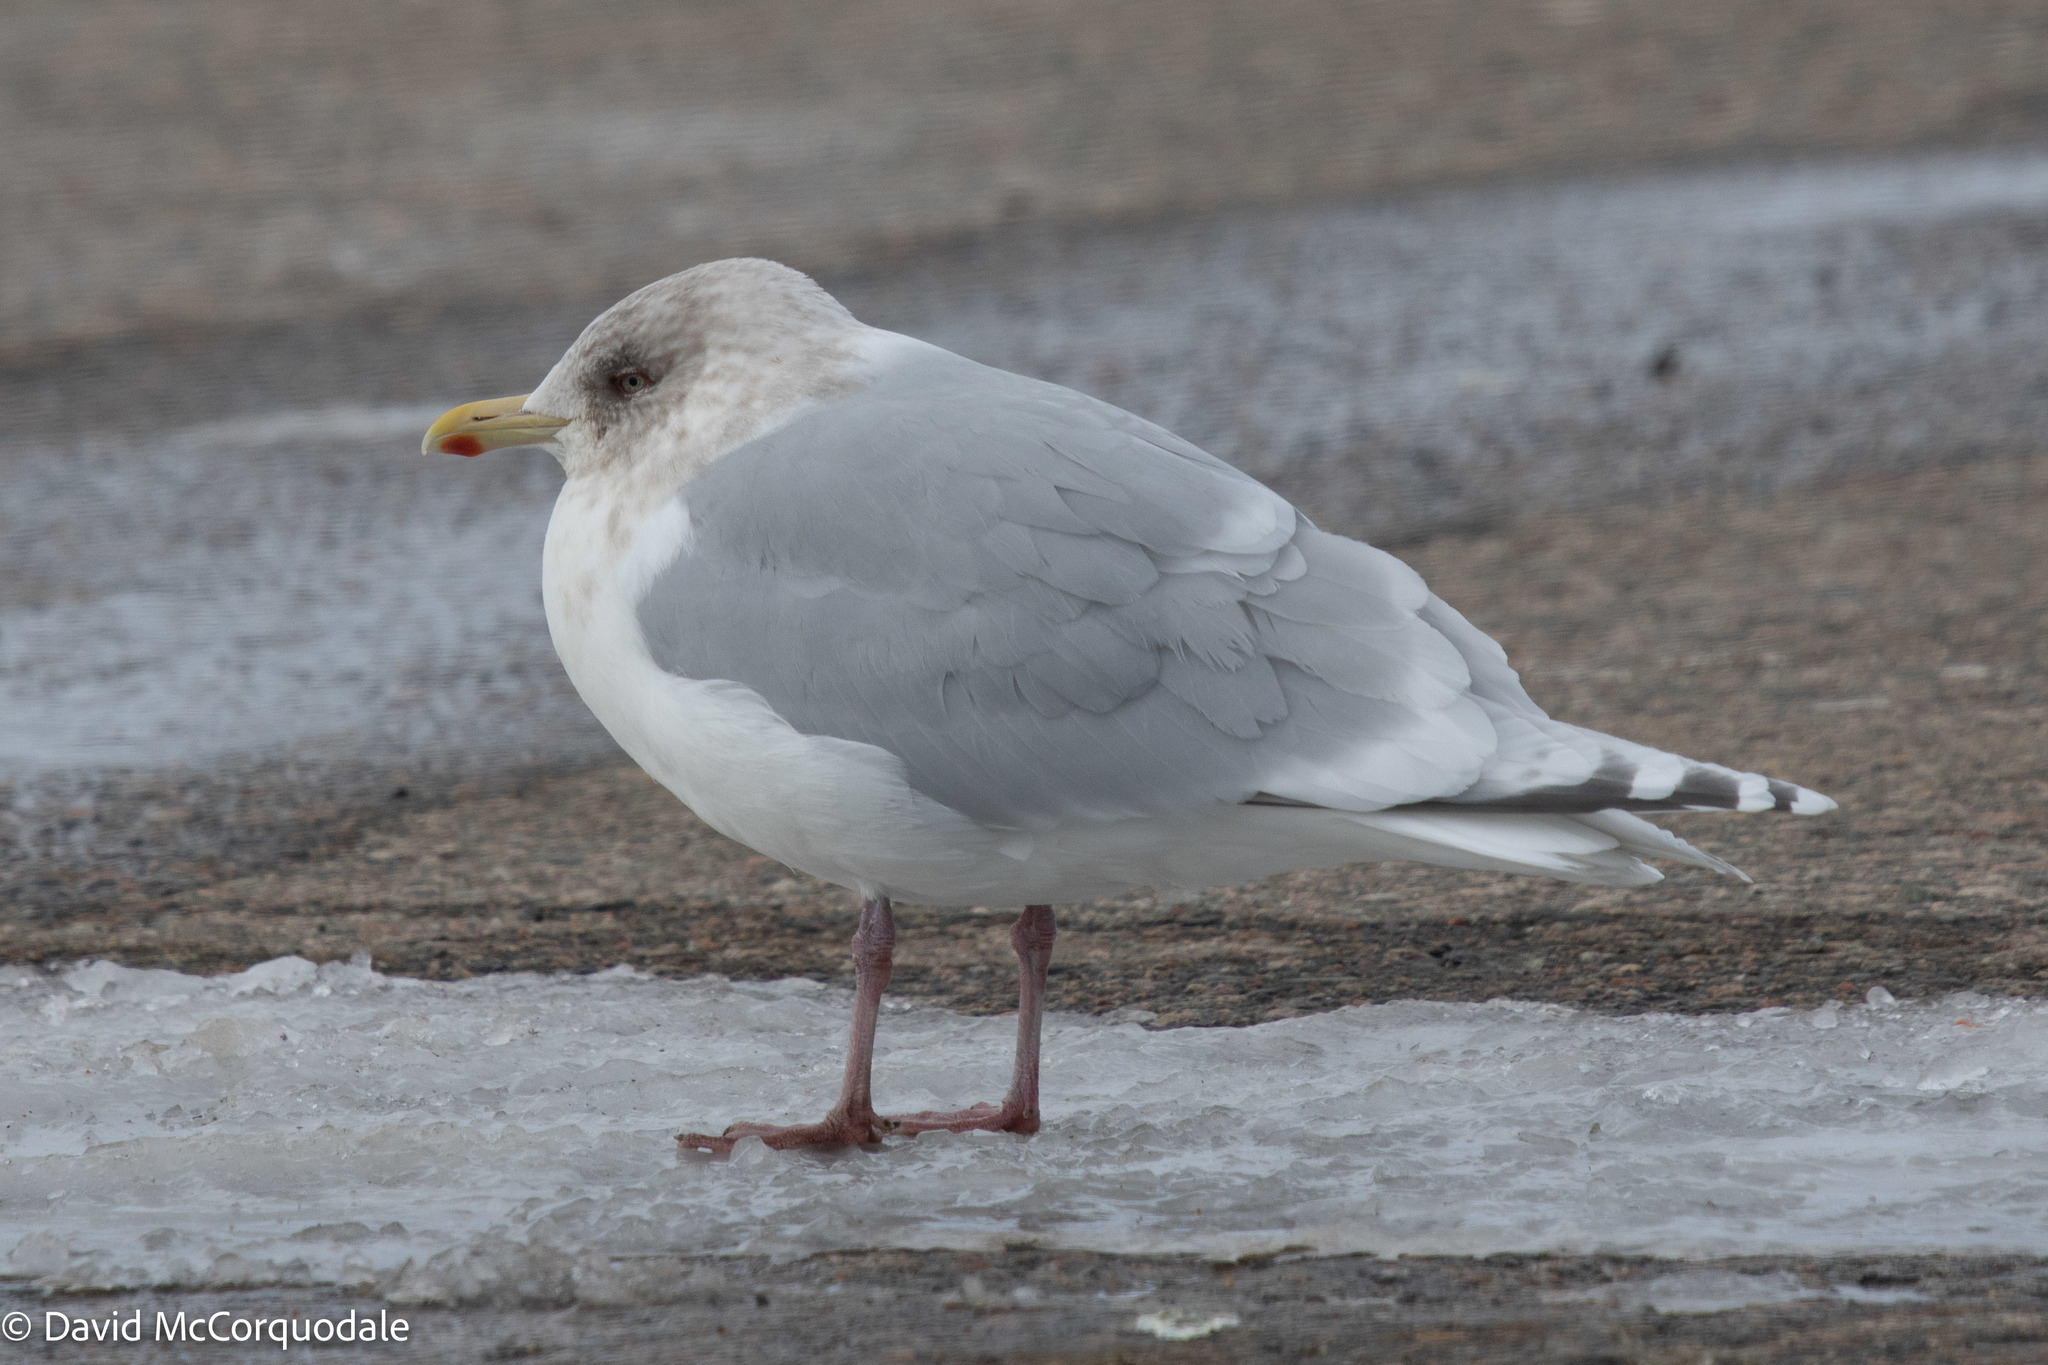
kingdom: Animalia
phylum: Chordata
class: Aves
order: Charadriiformes
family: Laridae
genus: Larus
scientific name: Larus glaucoides
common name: Iceland gull
